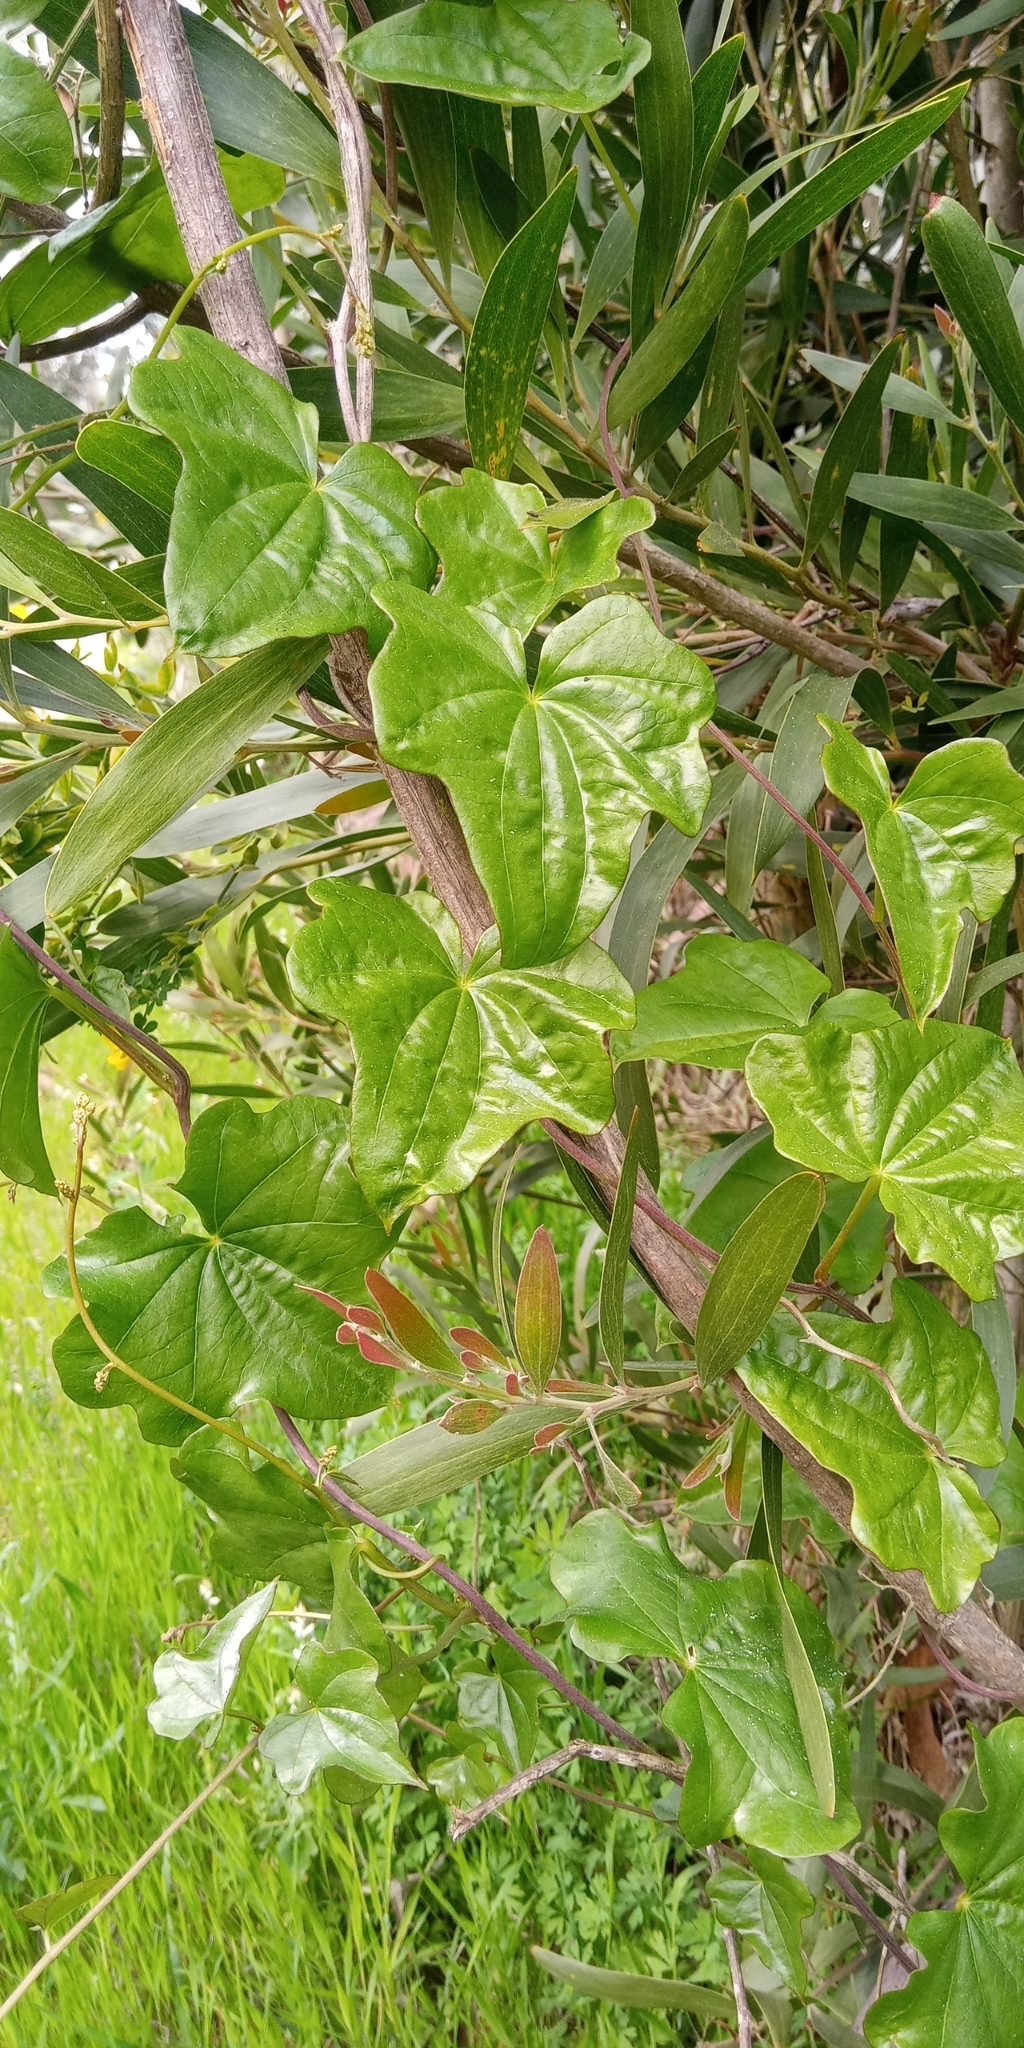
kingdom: Plantae
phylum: Tracheophyta
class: Liliopsida
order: Dioscoreales
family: Dioscoreaceae
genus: Dioscorea
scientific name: Dioscorea bryoniifolia
